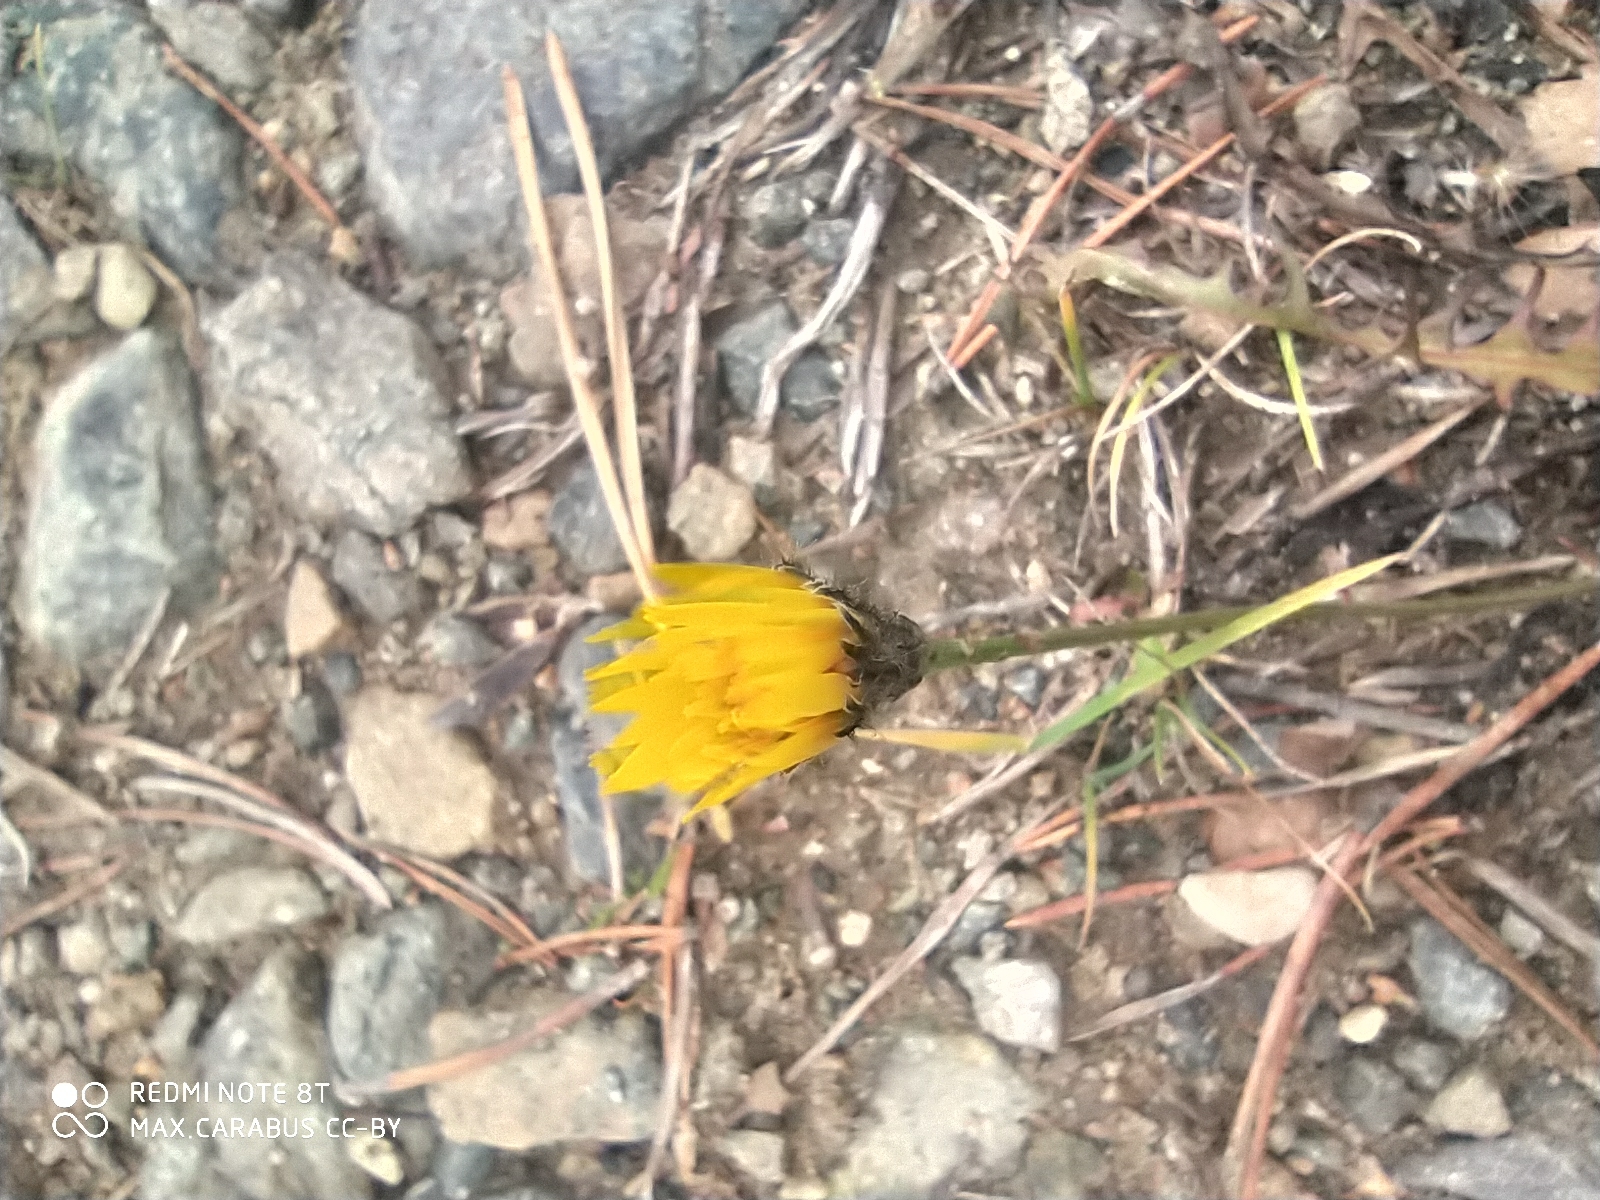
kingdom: Plantae
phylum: Tracheophyta
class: Magnoliopsida
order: Asterales
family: Asteraceae
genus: Scorzoneroides
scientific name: Scorzoneroides autumnalis
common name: Autumn hawkbit
